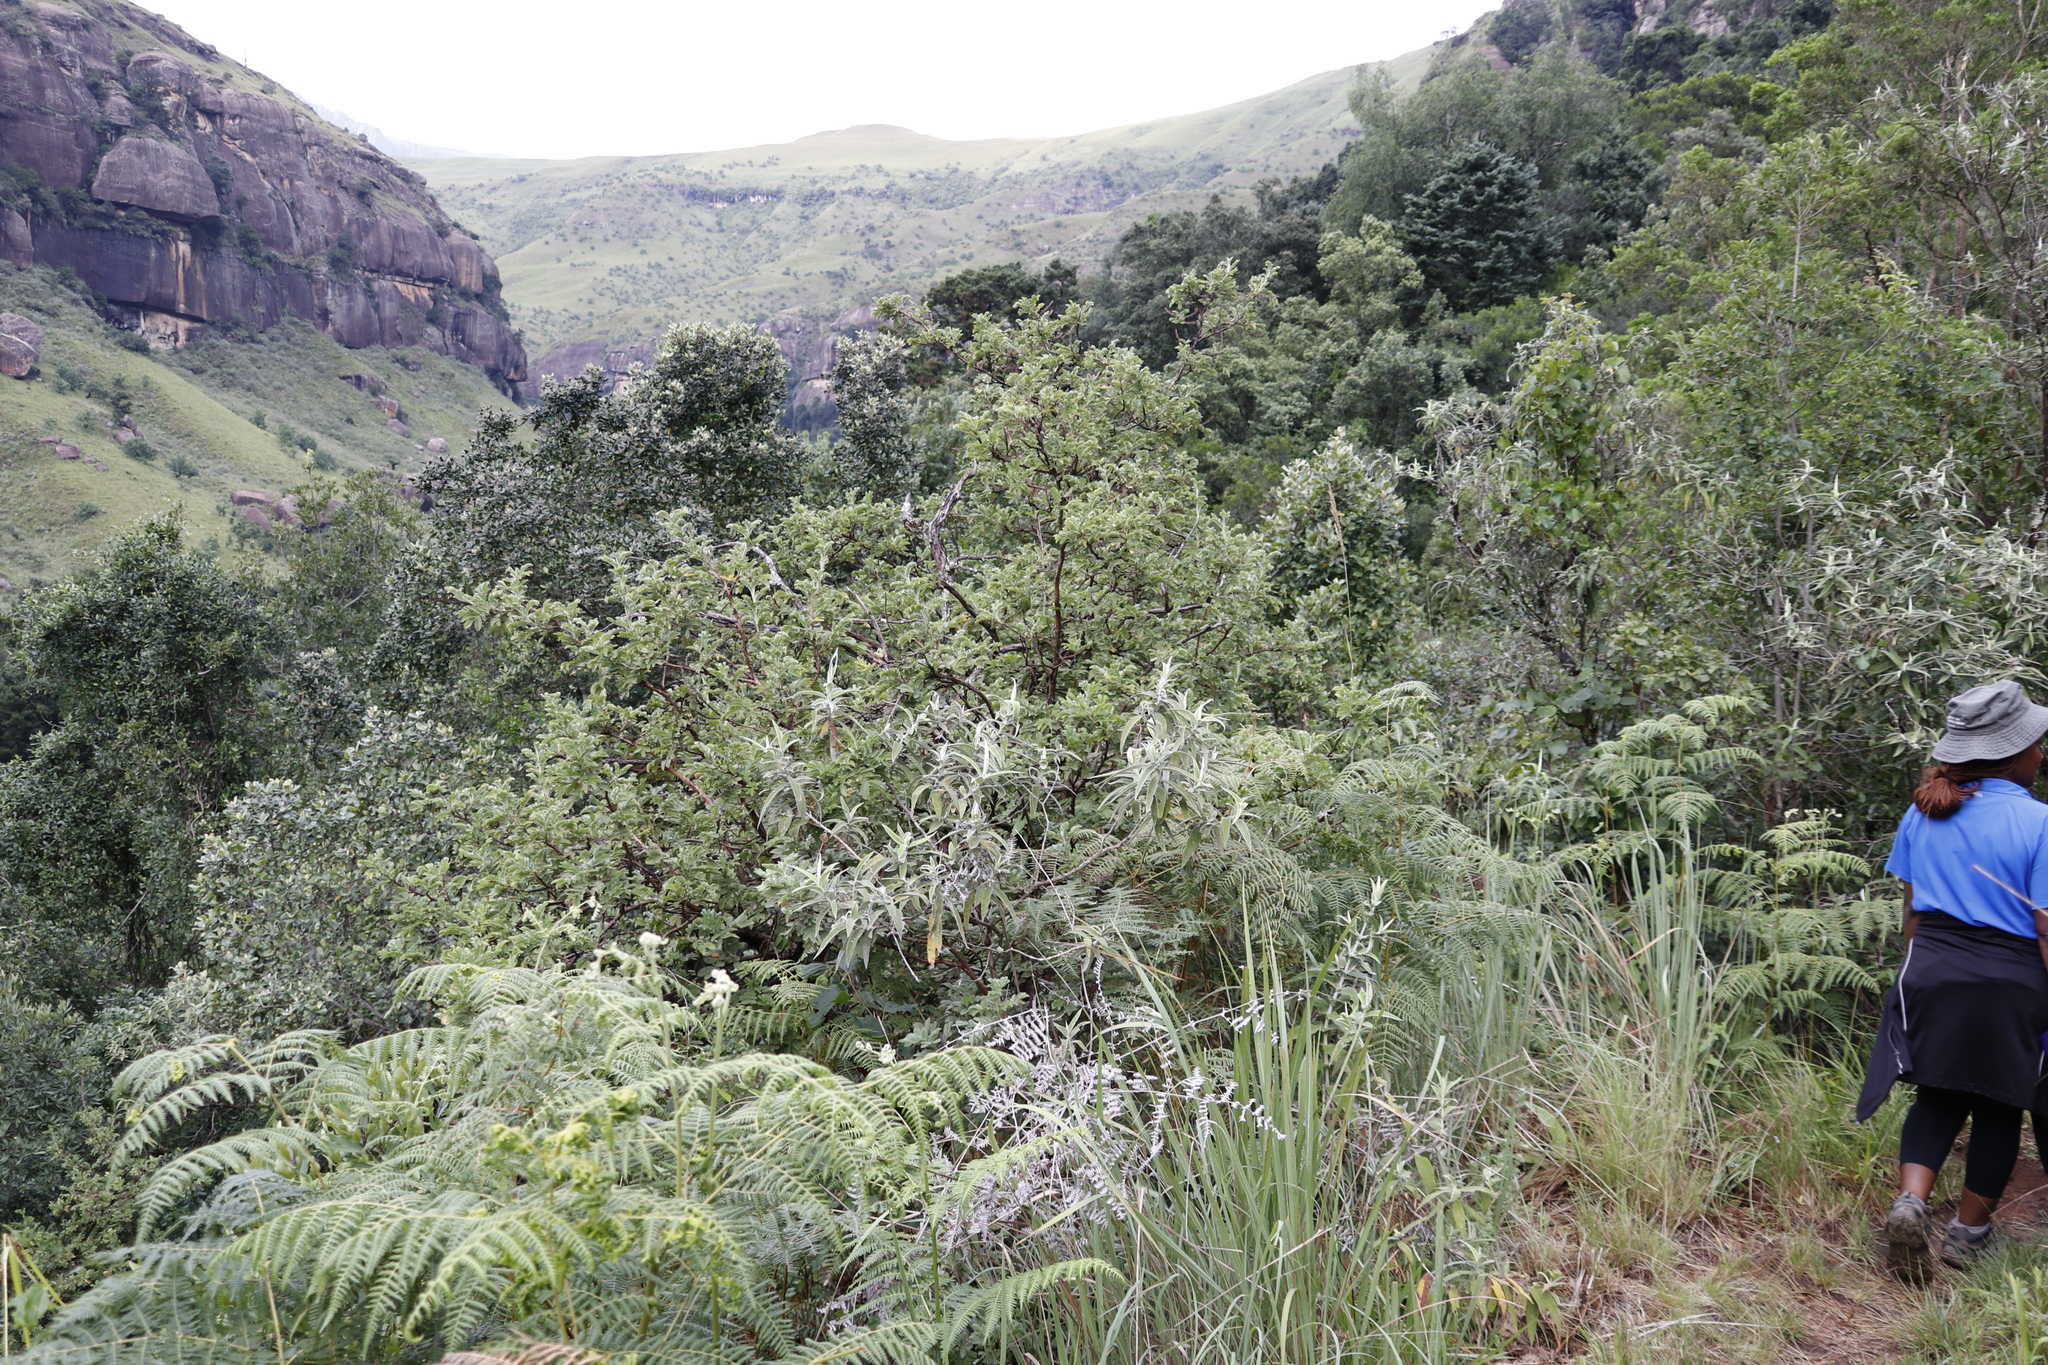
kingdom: Plantae
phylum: Tracheophyta
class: Magnoliopsida
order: Rosales
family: Rosaceae
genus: Leucosidea
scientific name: Leucosidea sericea
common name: Oldwood
